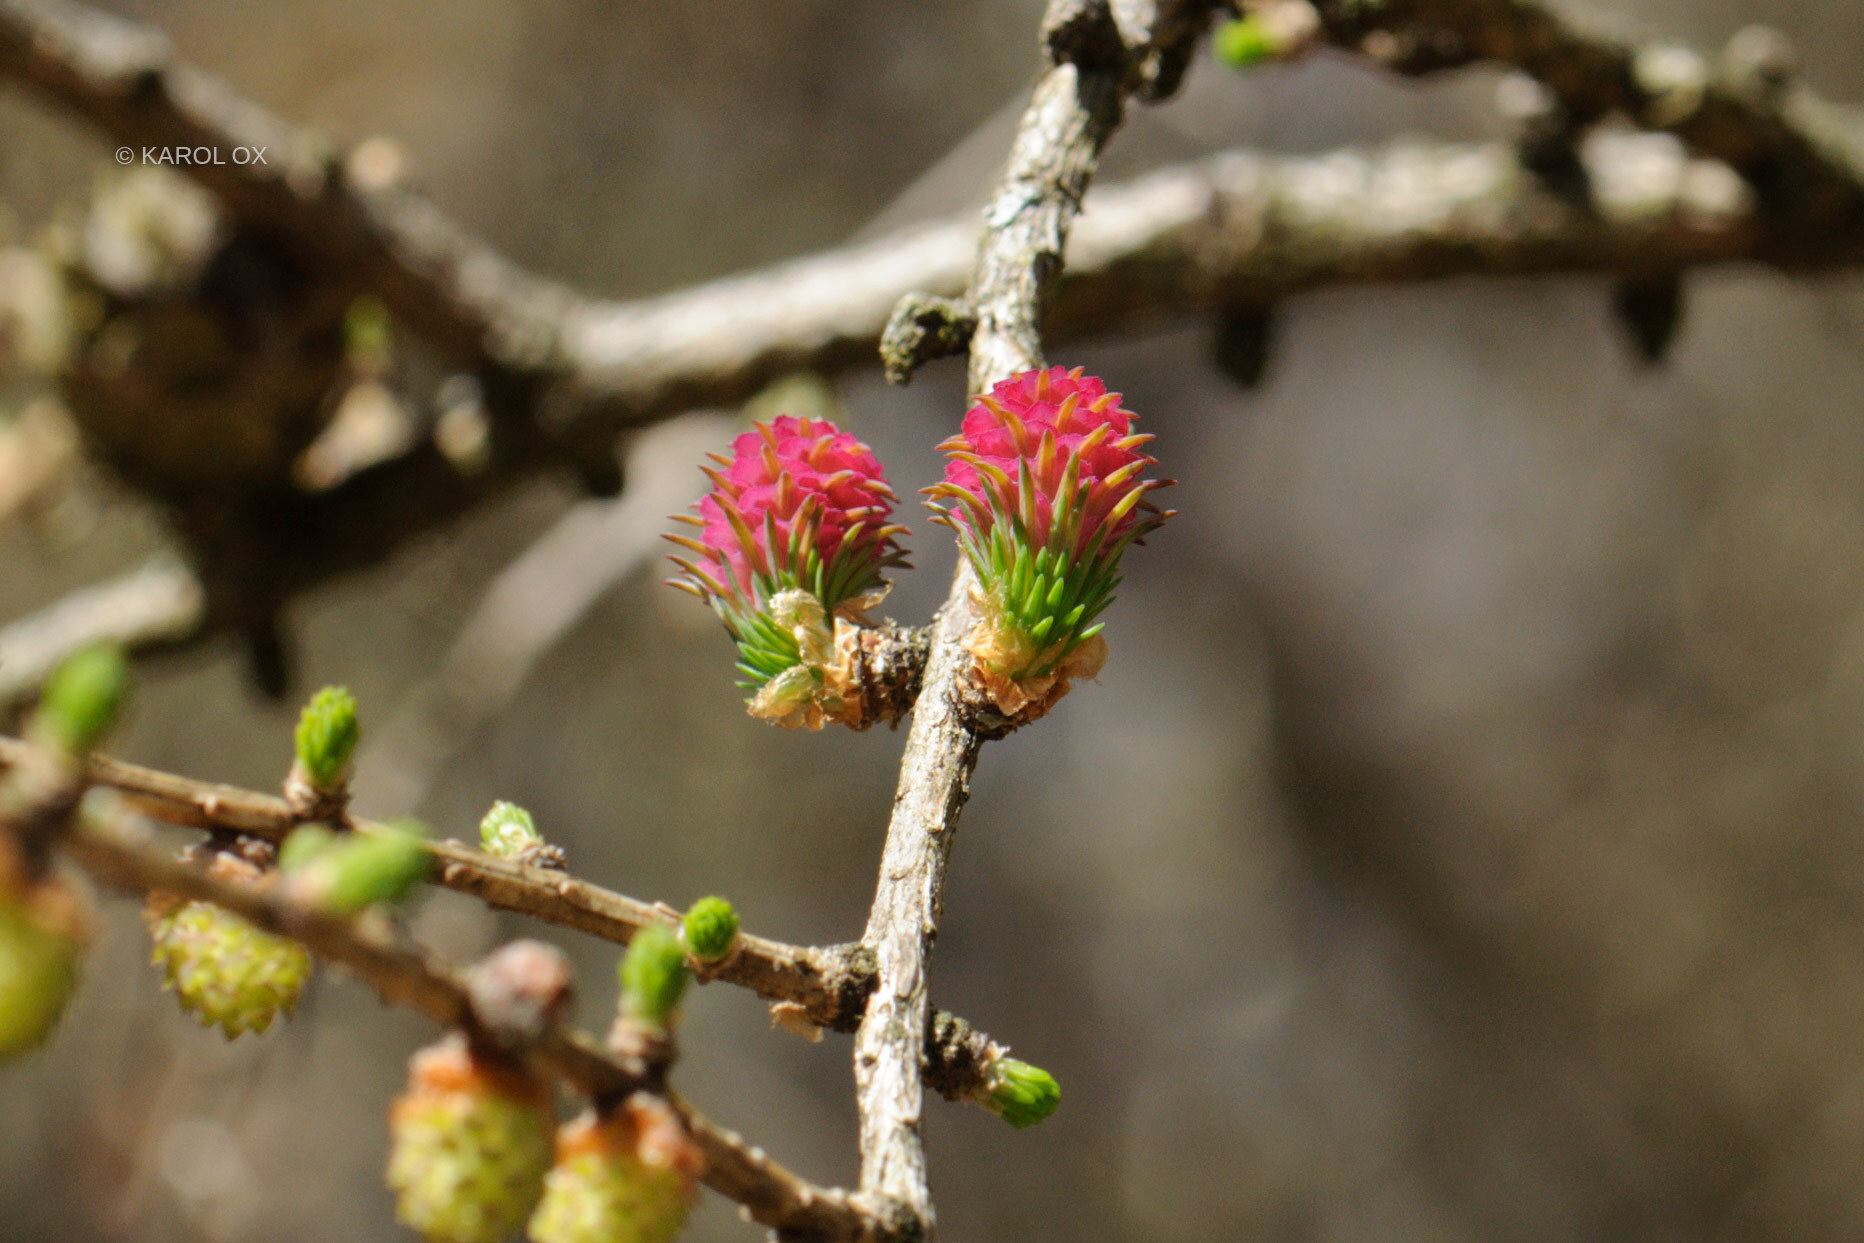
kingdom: Plantae
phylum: Tracheophyta
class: Pinopsida
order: Pinales
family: Pinaceae
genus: Larix
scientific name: Larix decidua
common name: European larch
